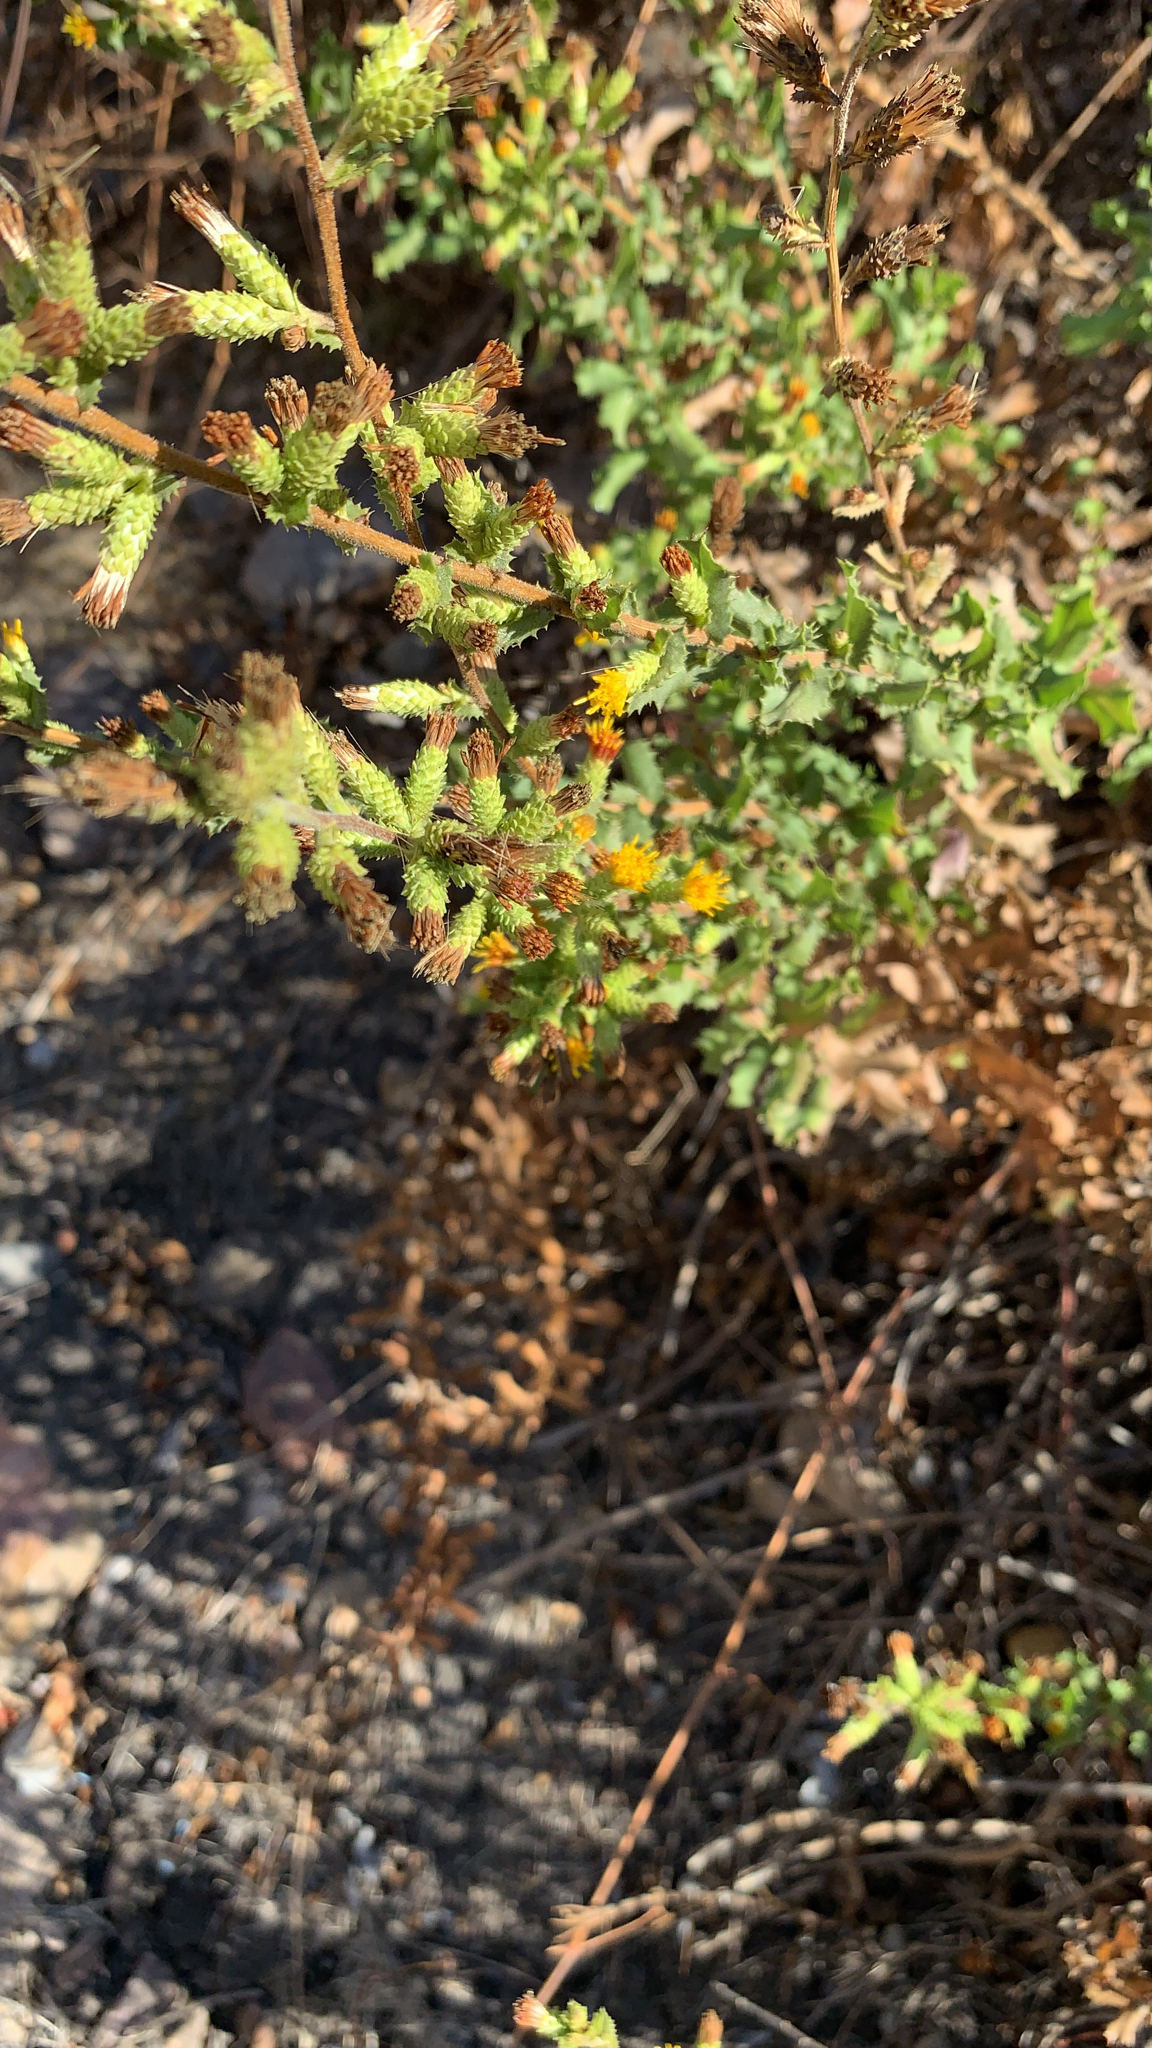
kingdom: Plantae
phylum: Tracheophyta
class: Magnoliopsida
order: Asterales
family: Asteraceae
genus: Hazardia
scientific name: Hazardia squarrosa
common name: Saw-tooth goldenbush
